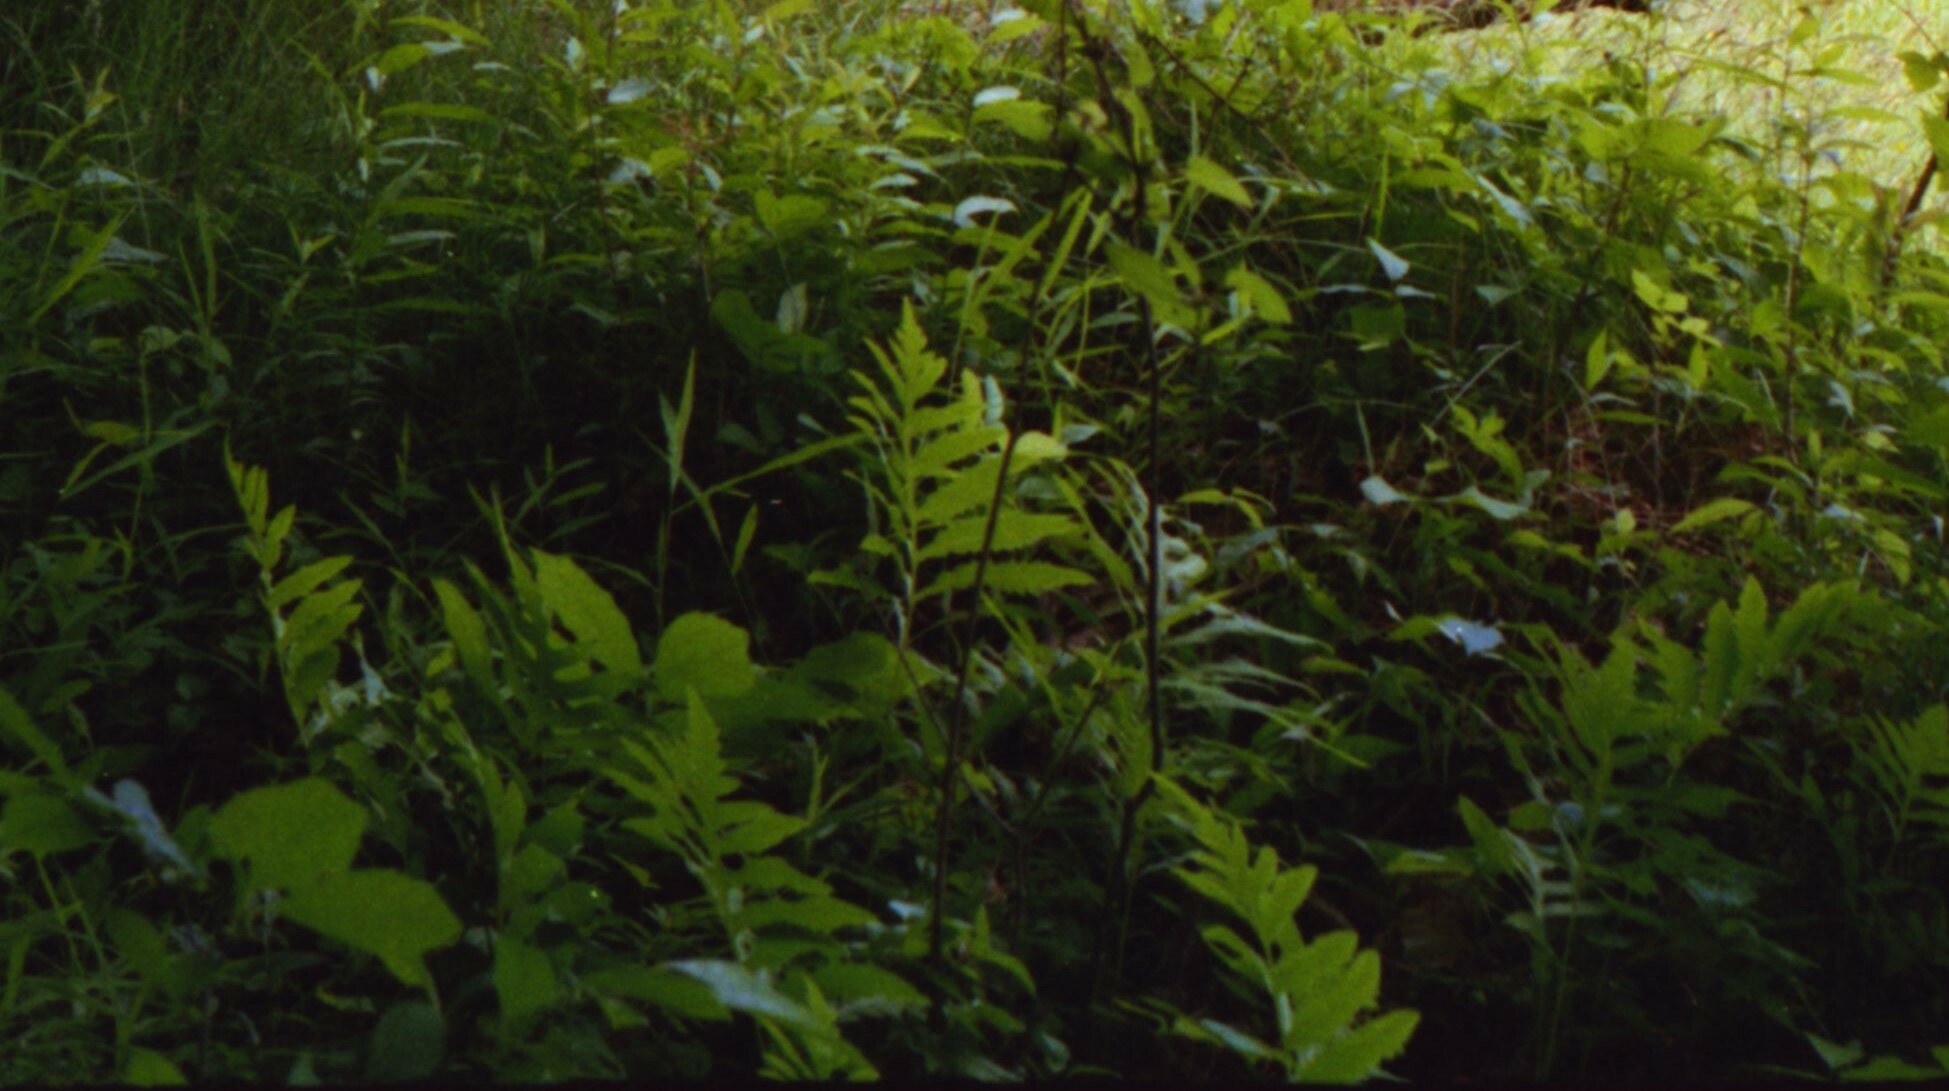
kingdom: Plantae
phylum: Tracheophyta
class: Polypodiopsida
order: Polypodiales
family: Onocleaceae
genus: Onoclea
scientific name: Onoclea sensibilis
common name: Sensitive fern
